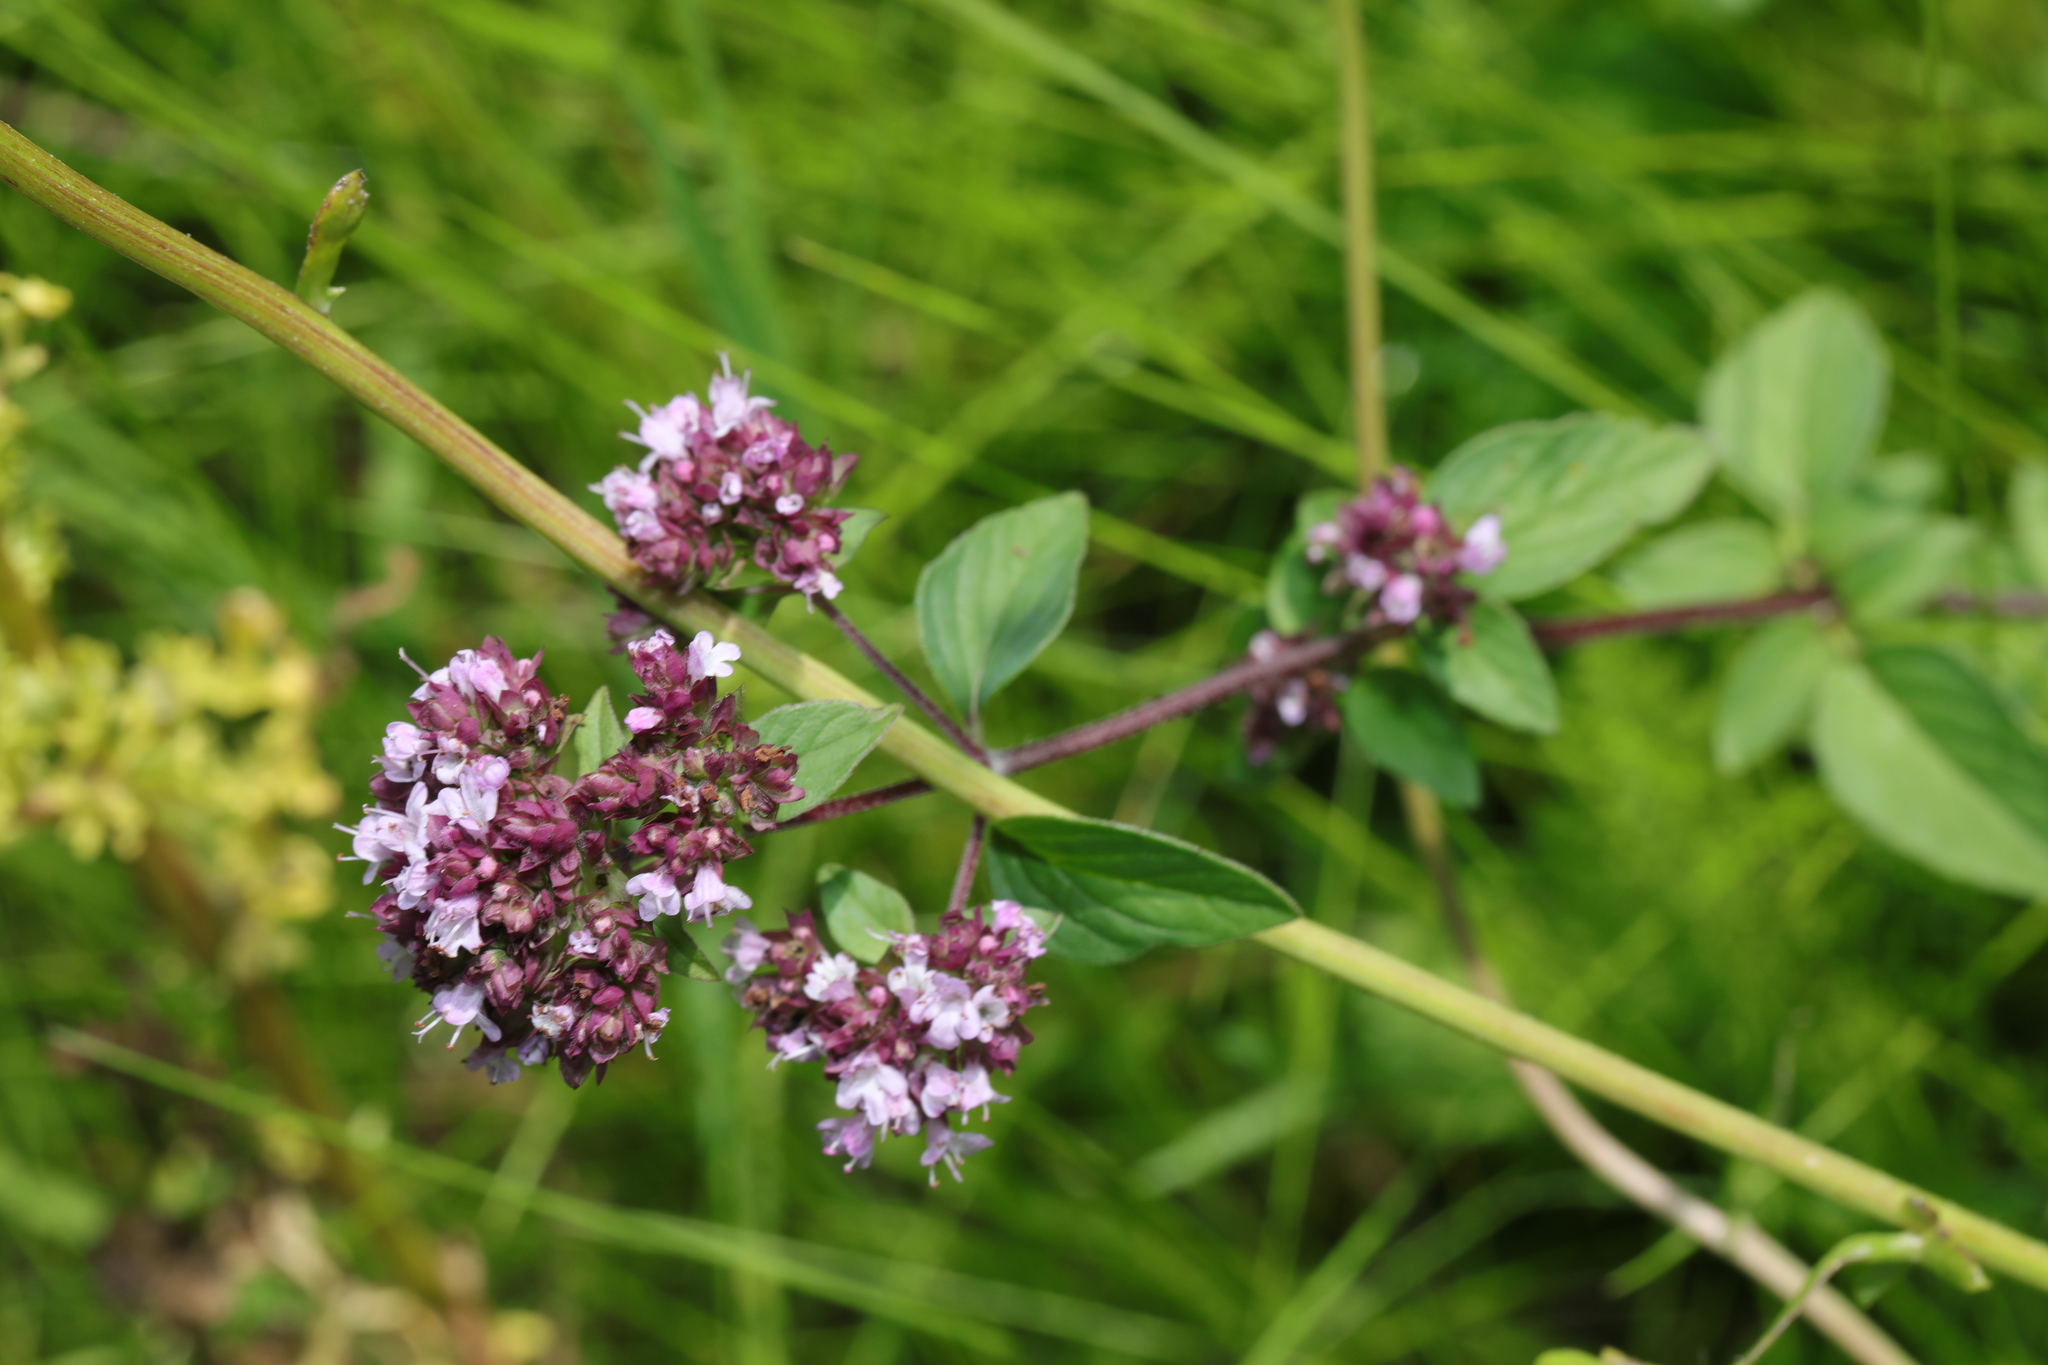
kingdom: Plantae
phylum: Tracheophyta
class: Magnoliopsida
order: Lamiales
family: Lamiaceae
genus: Origanum
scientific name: Origanum vulgare
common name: Wild marjoram
